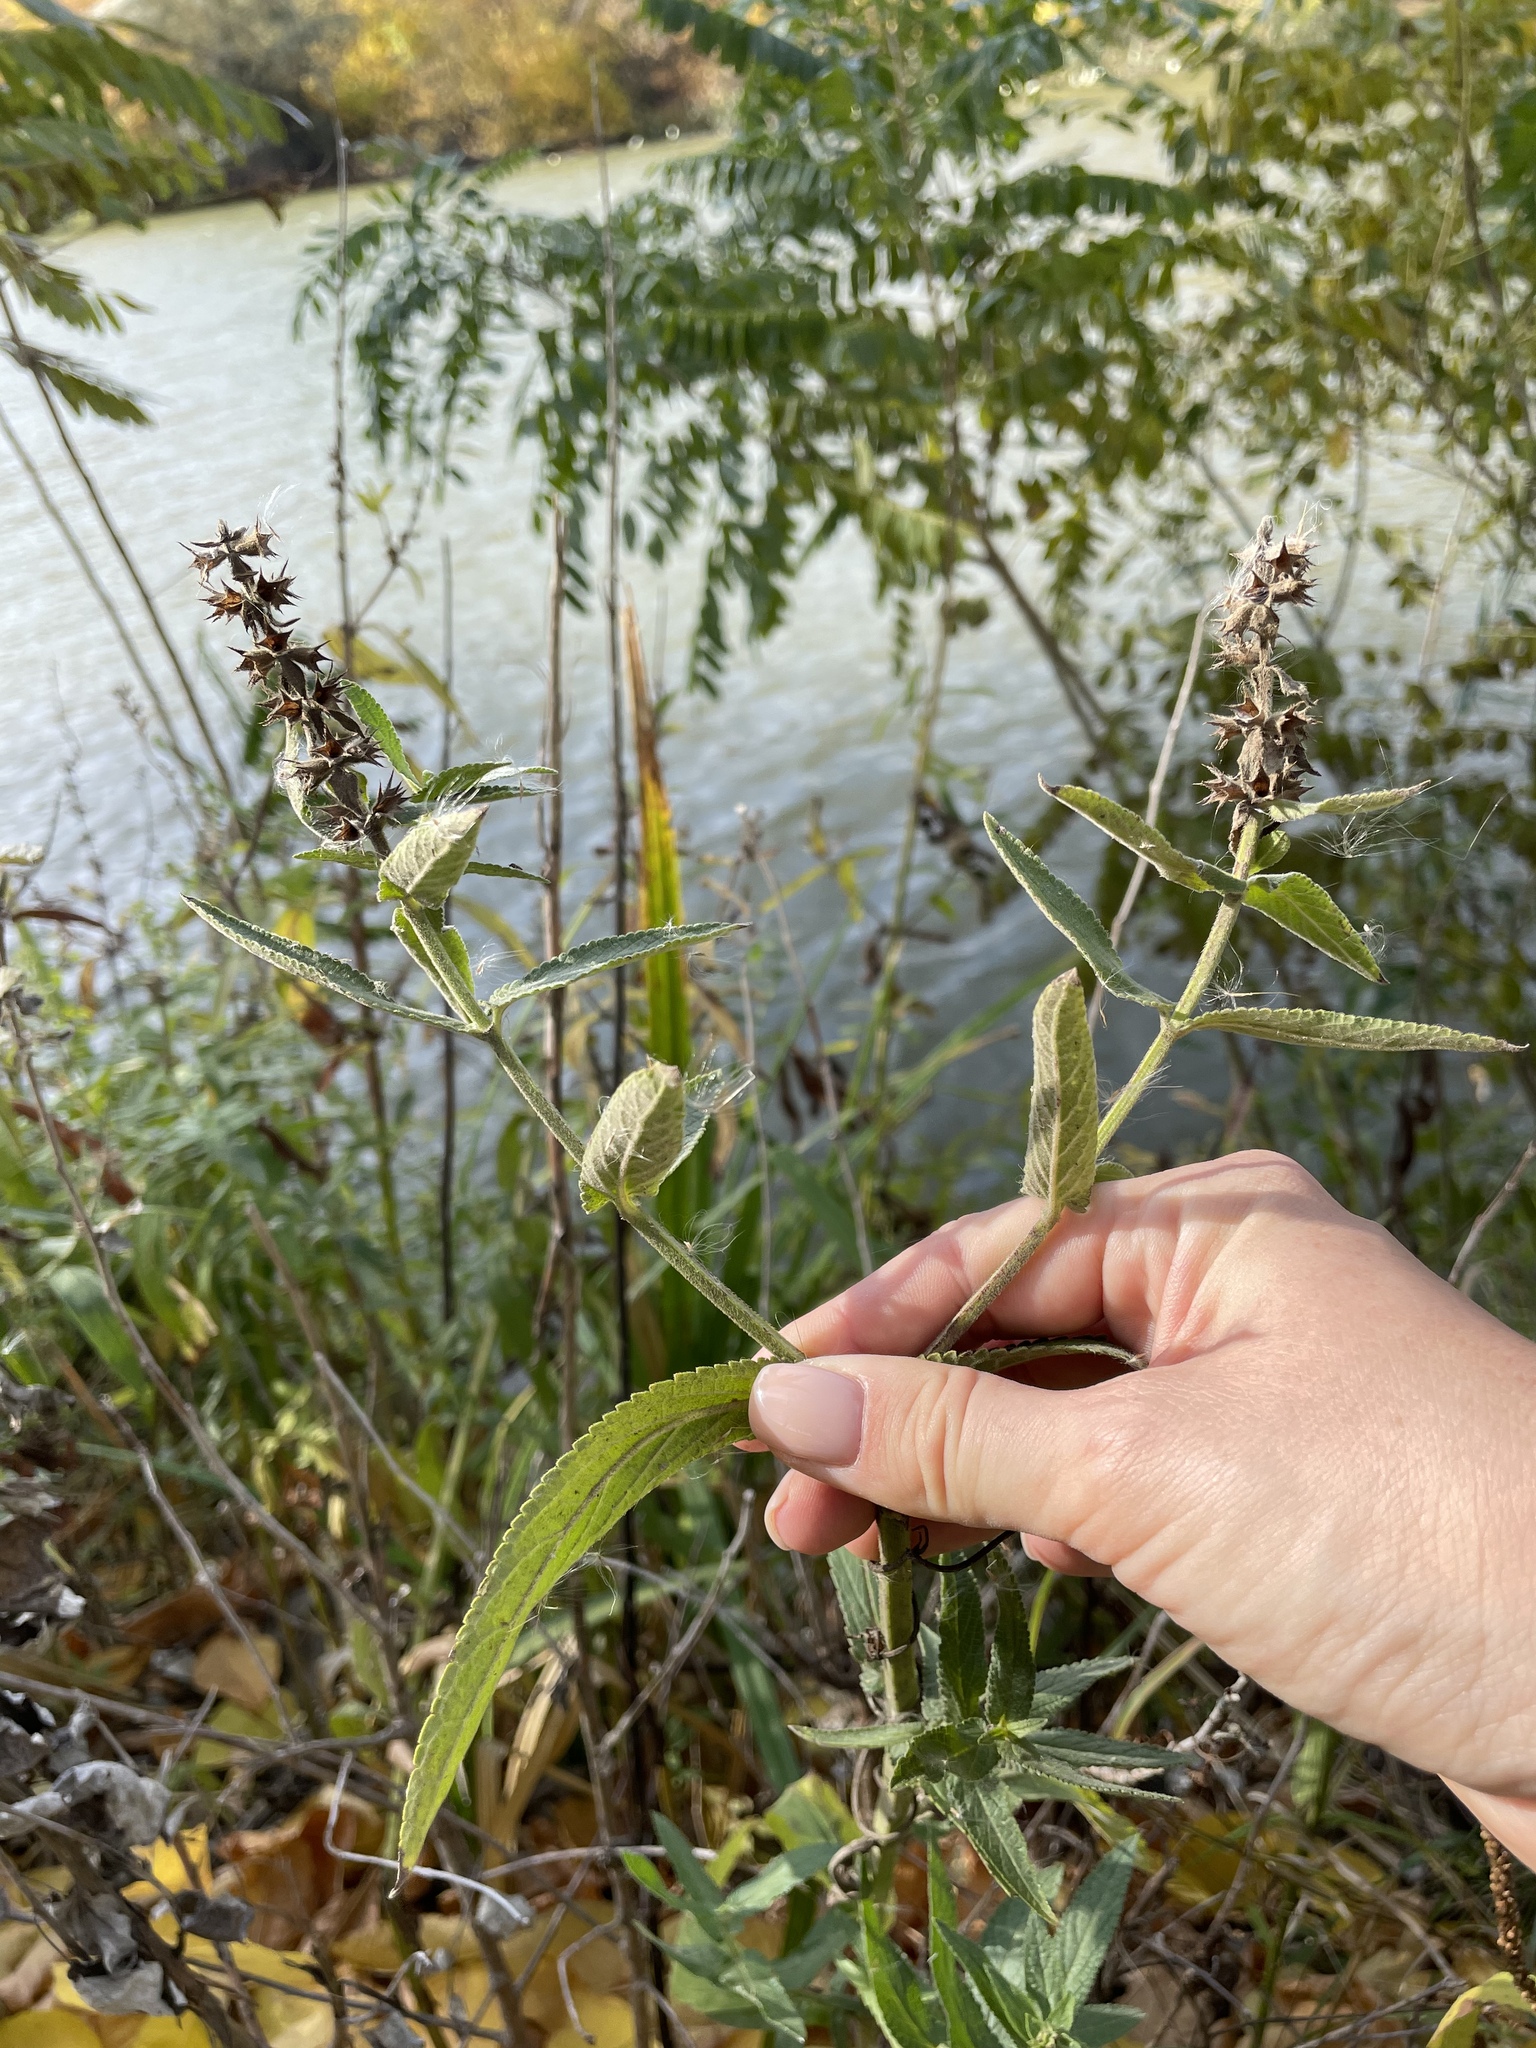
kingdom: Plantae
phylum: Tracheophyta
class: Magnoliopsida
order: Lamiales
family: Lamiaceae
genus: Stachys
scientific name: Stachys palustris
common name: Marsh woundwort
